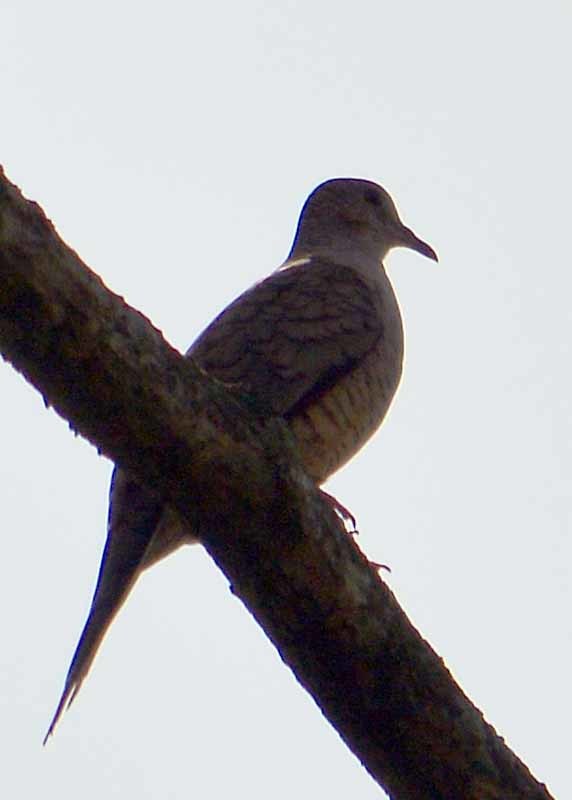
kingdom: Animalia
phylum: Chordata
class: Aves
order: Columbiformes
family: Columbidae
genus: Columbina
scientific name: Columbina inca
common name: Inca dove
